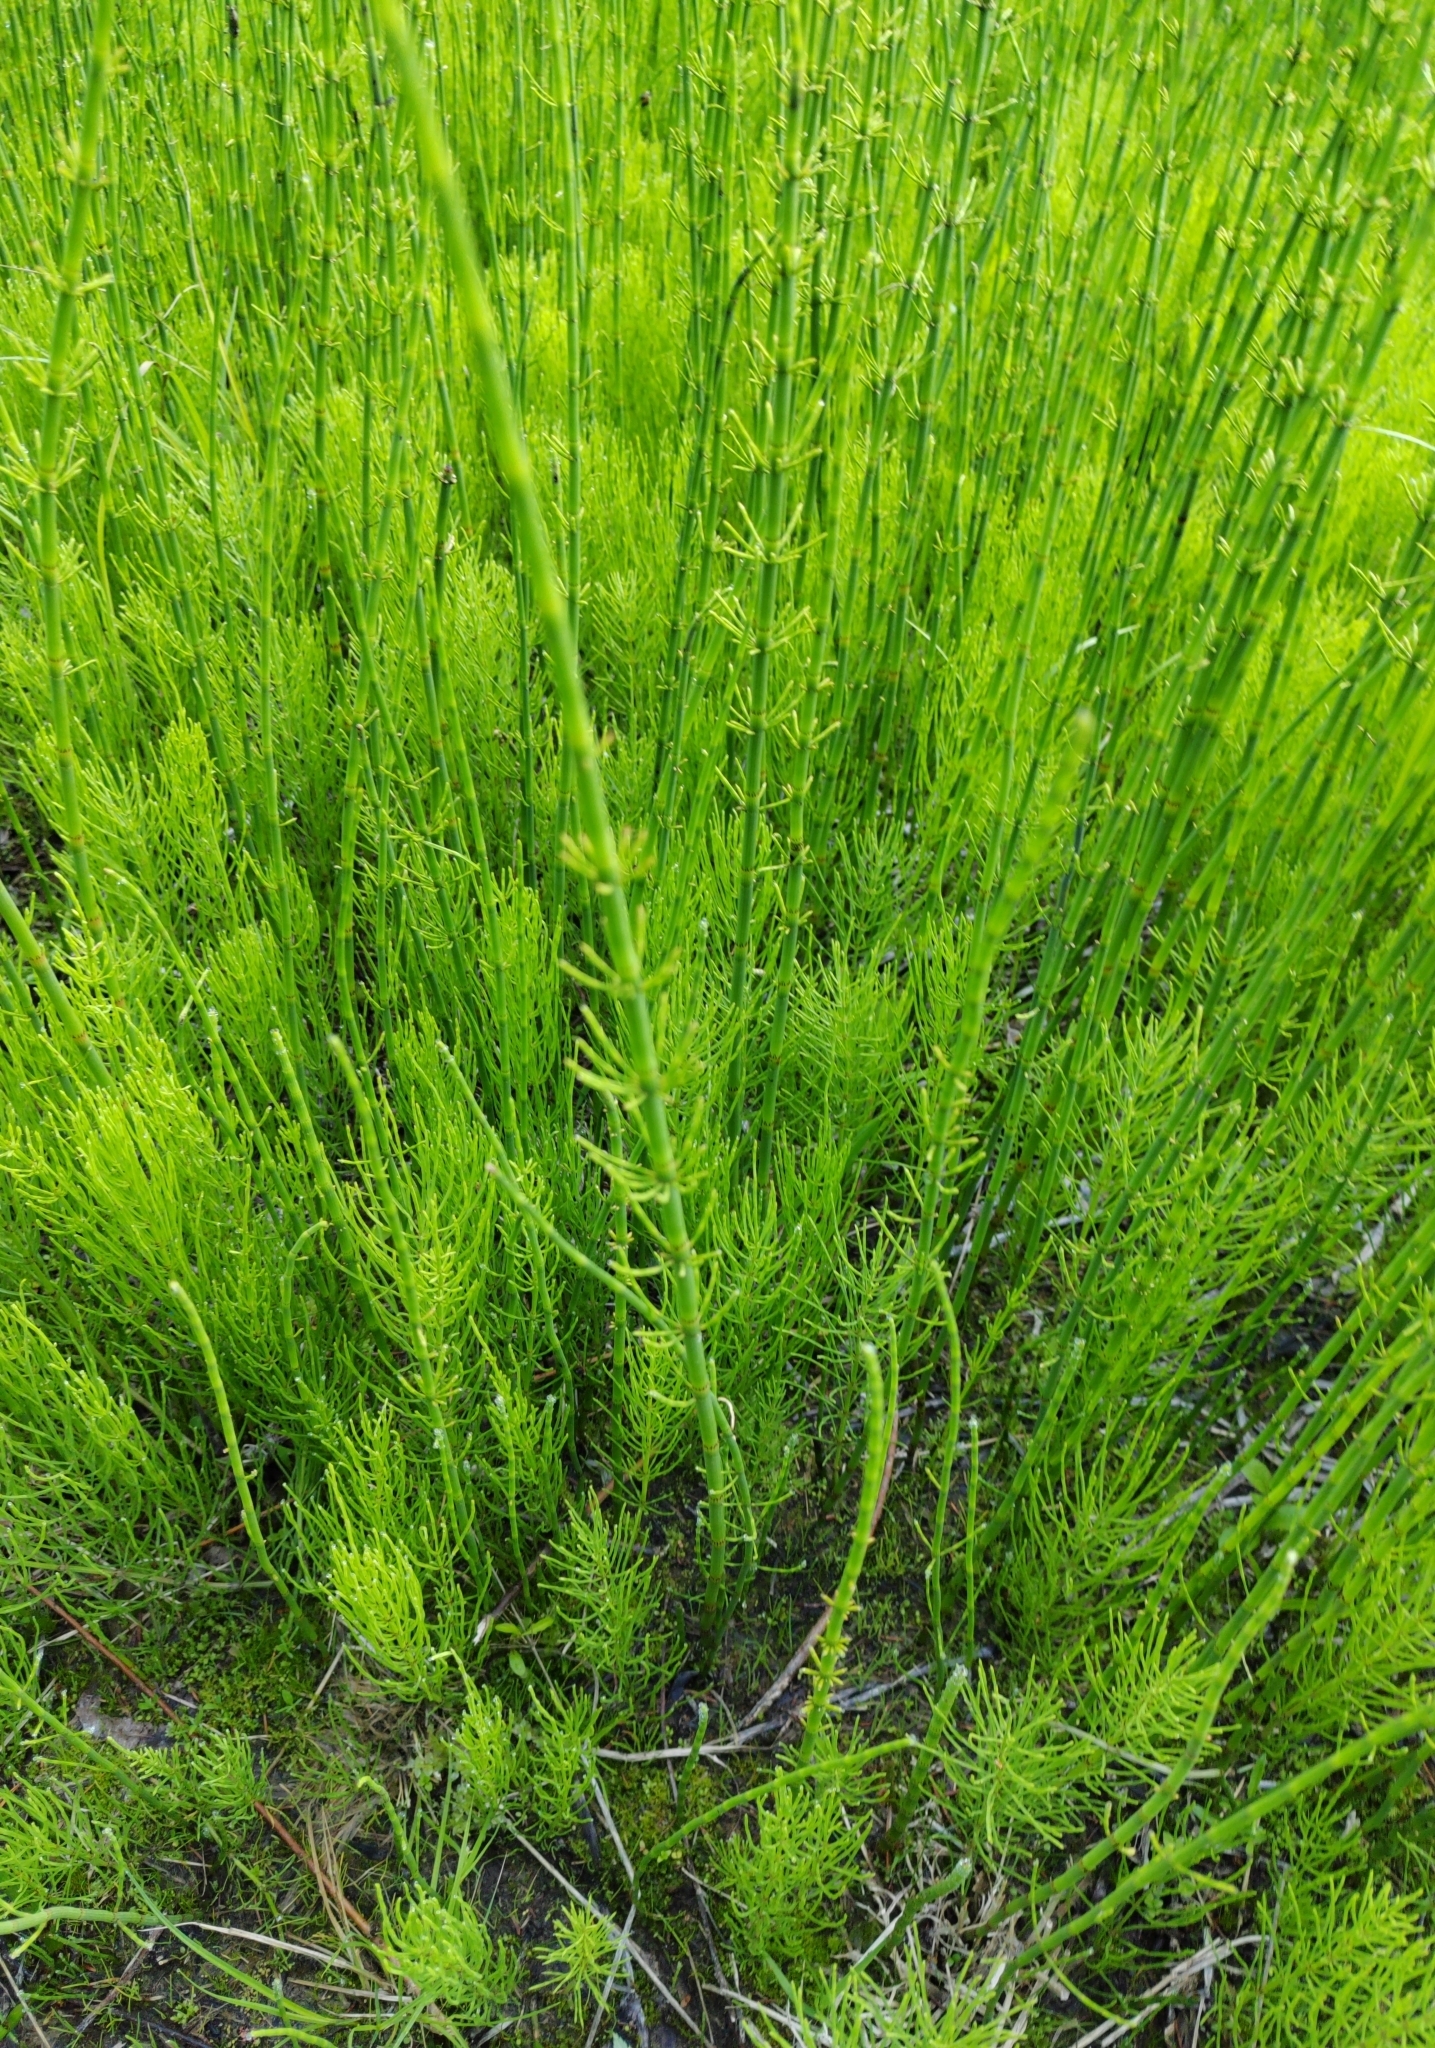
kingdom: Plantae
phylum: Tracheophyta
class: Polypodiopsida
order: Equisetales
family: Equisetaceae
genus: Equisetum
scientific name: Equisetum fluviatile
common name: Water horsetail
